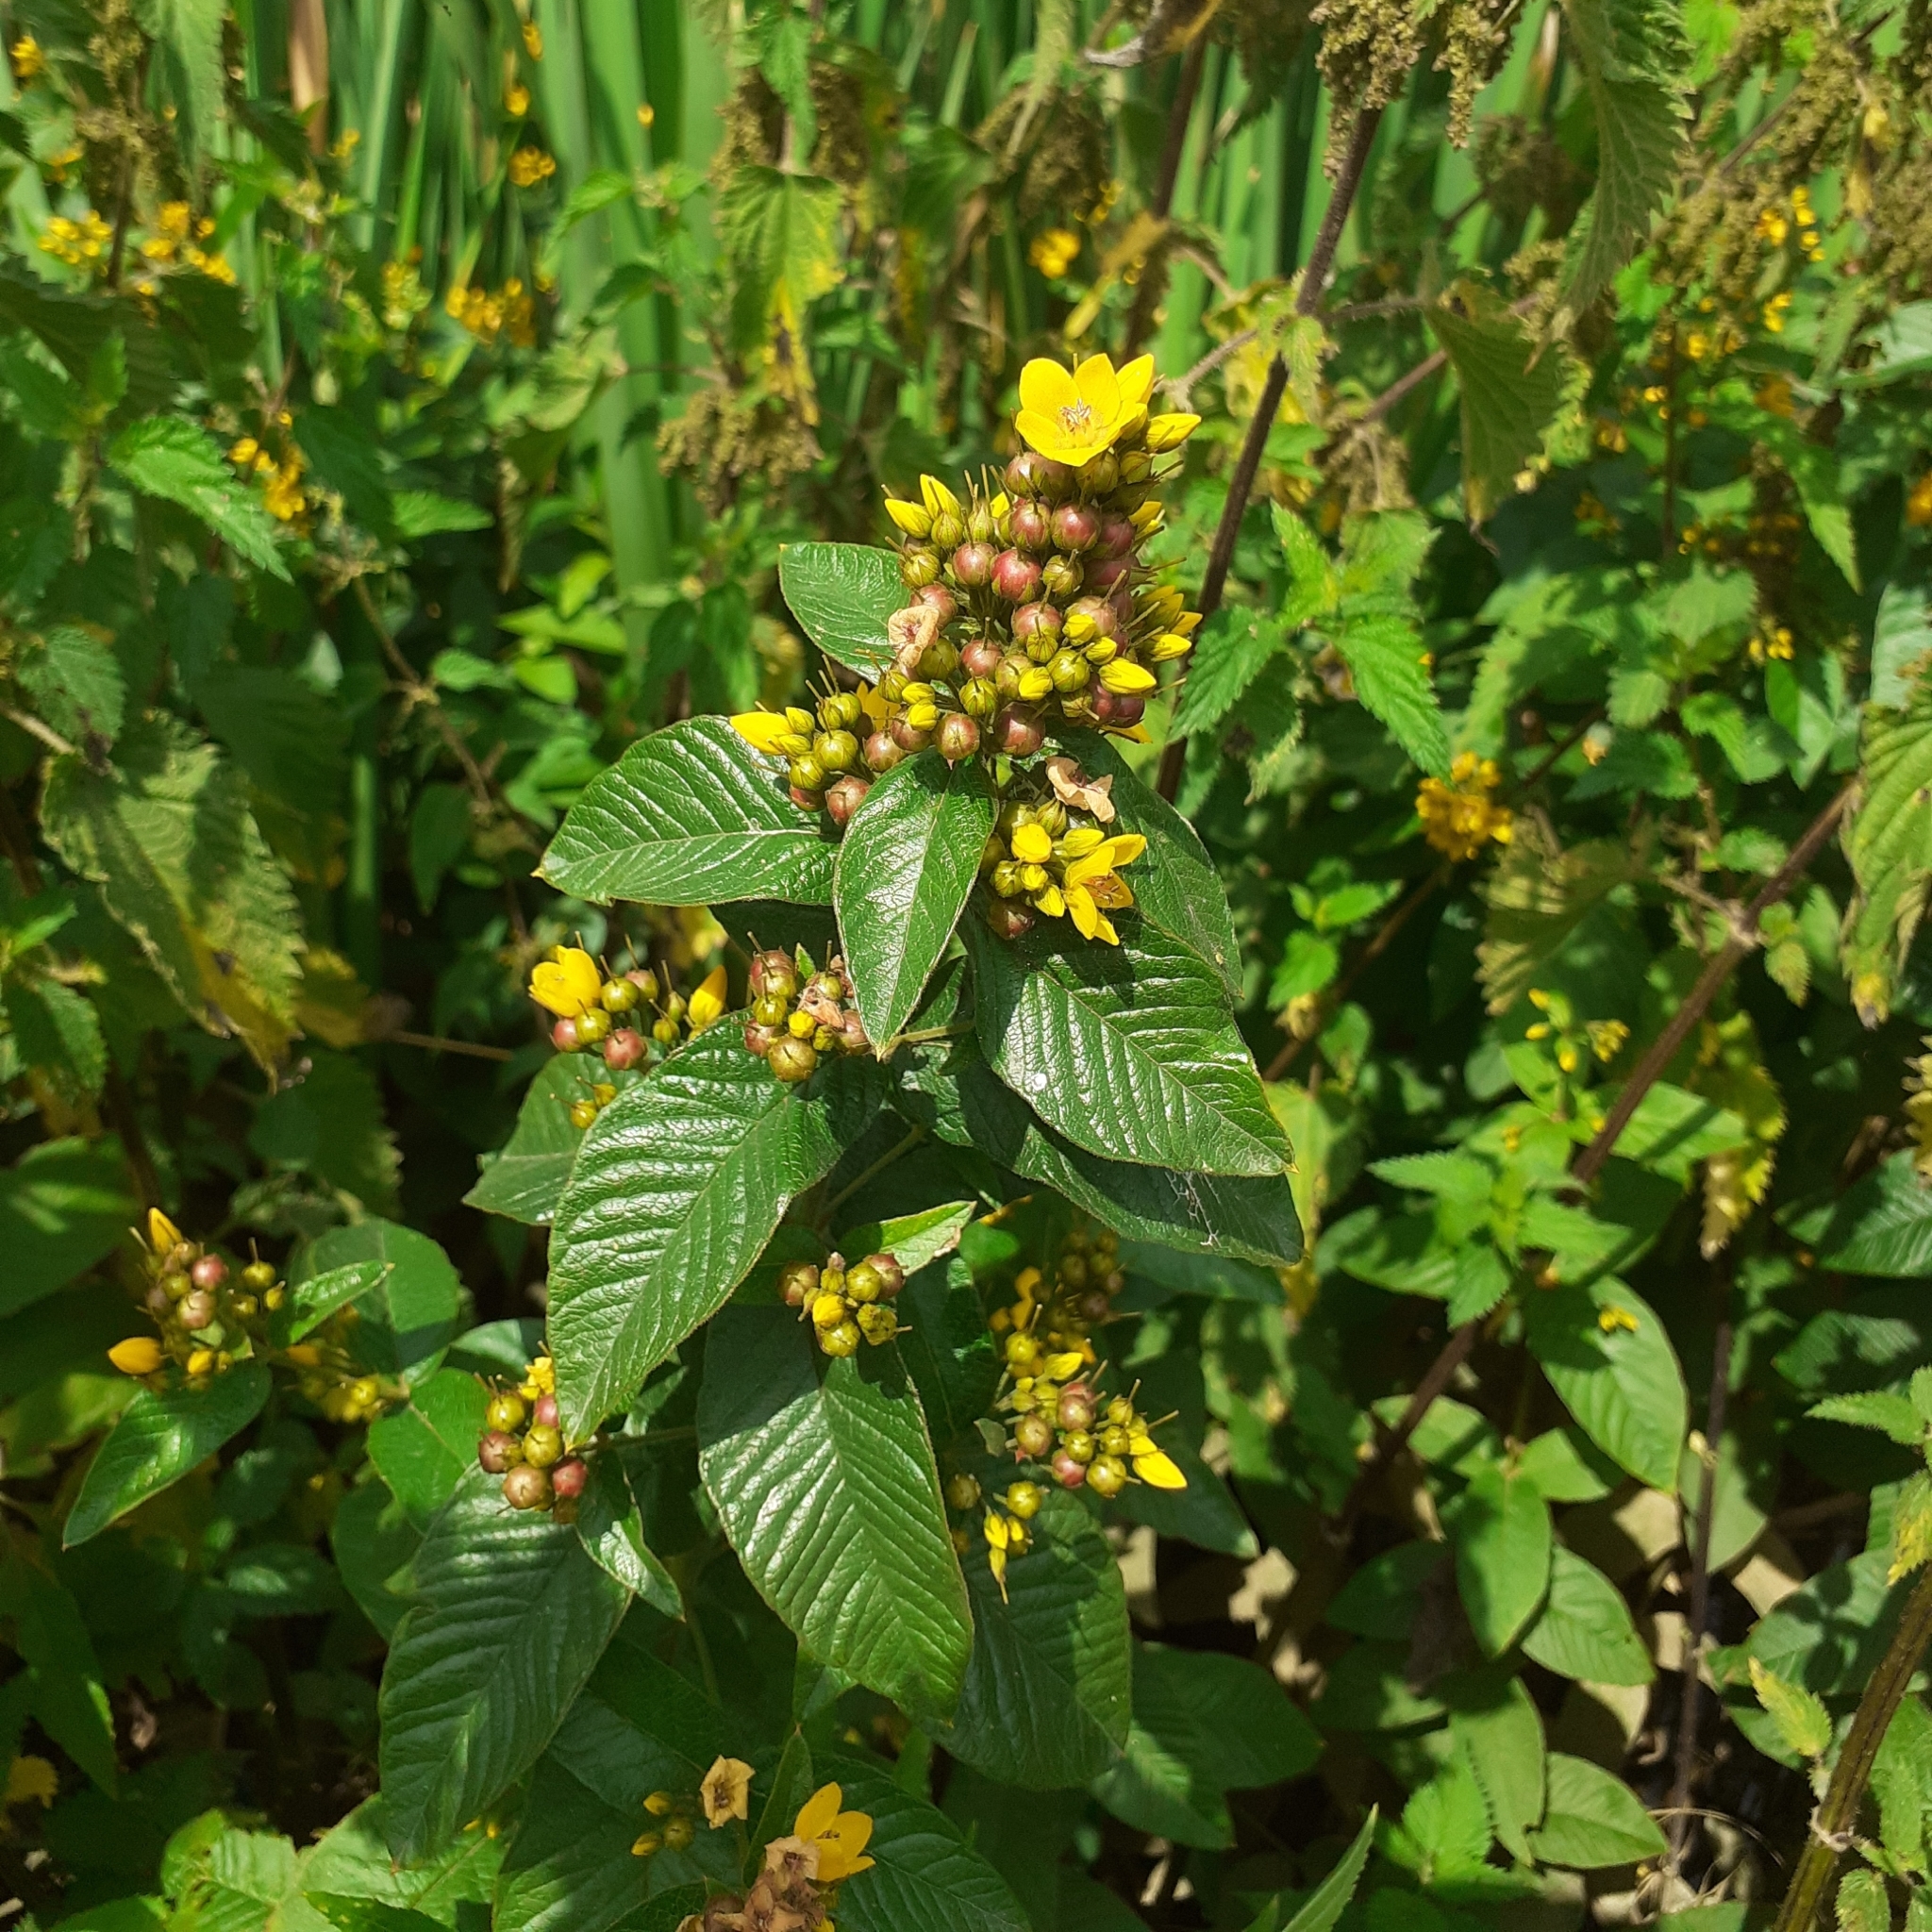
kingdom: Plantae
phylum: Tracheophyta
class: Magnoliopsida
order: Ericales
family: Primulaceae
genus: Lysimachia
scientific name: Lysimachia vulgaris
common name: Yellow loosestrife
